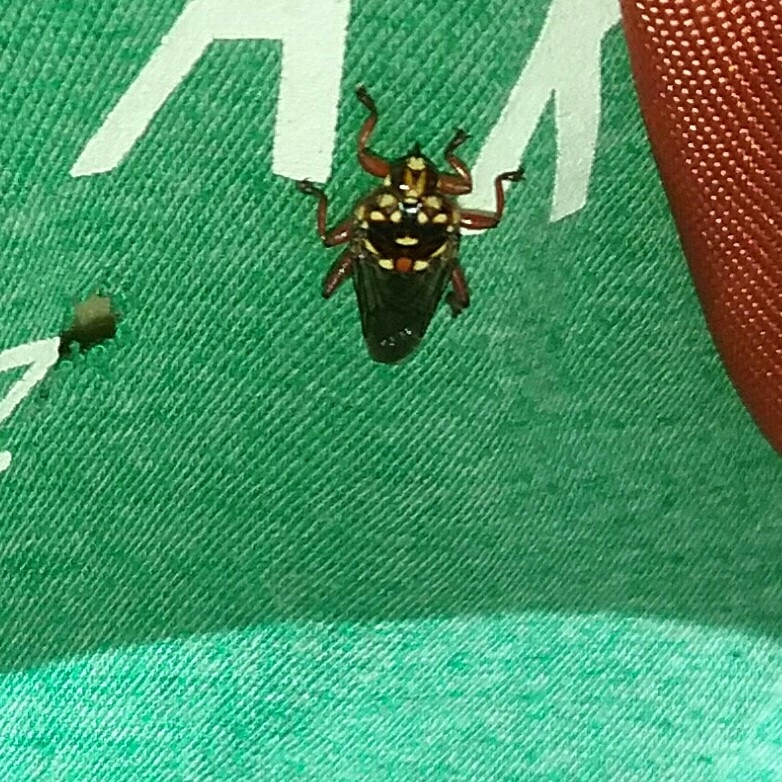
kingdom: Animalia
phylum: Arthropoda
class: Insecta
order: Diptera
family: Hippoboscidae
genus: Hippobosca
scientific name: Hippobosca rufipes
